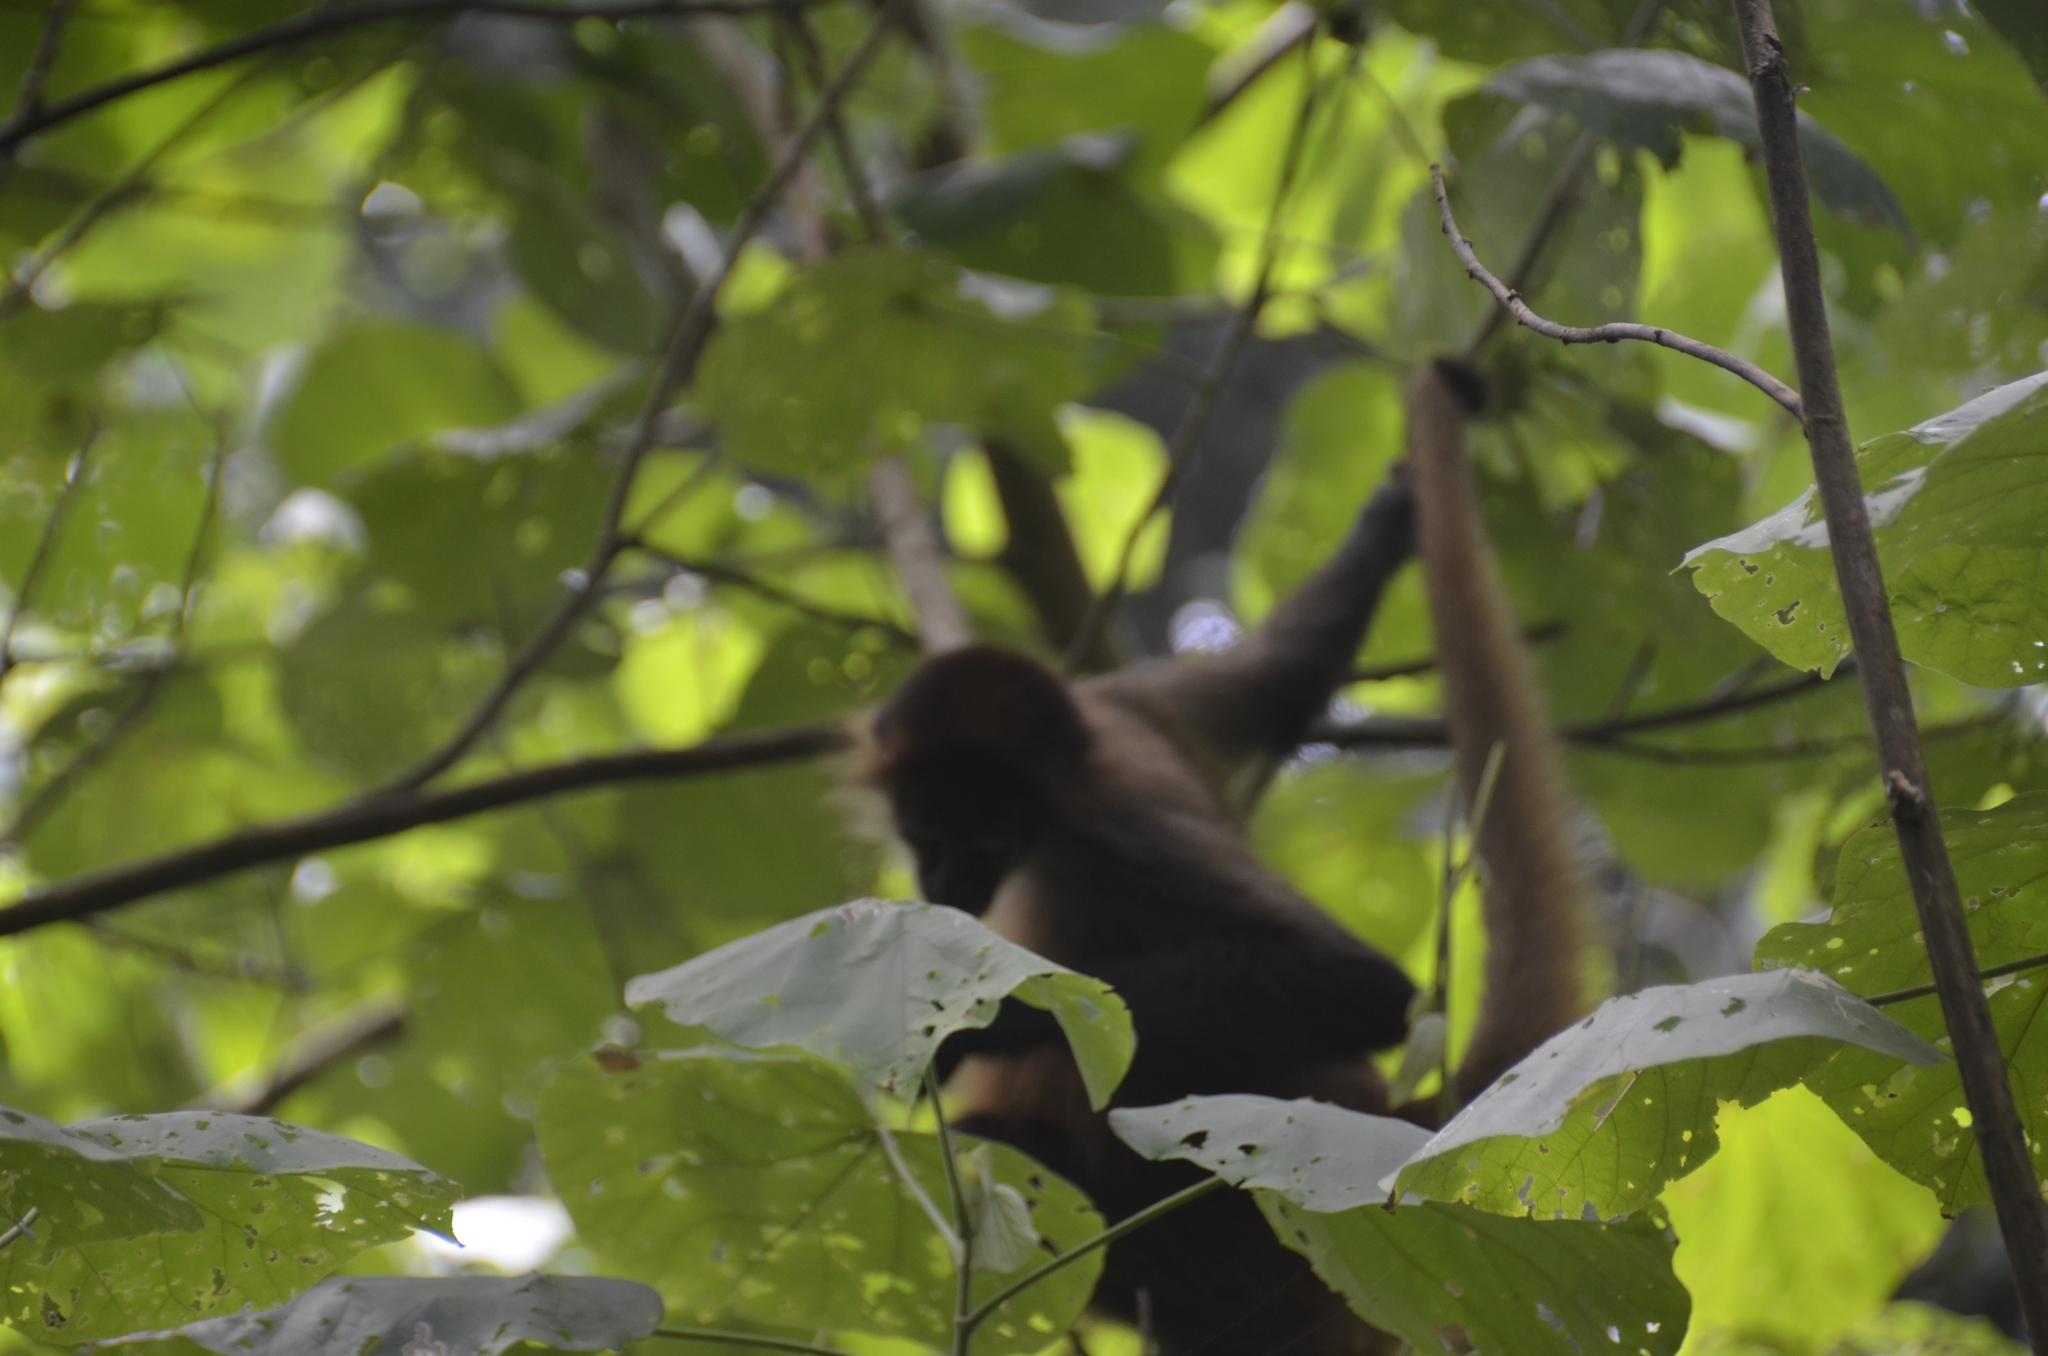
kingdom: Animalia
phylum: Chordata
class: Mammalia
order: Primates
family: Atelidae
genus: Ateles
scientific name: Ateles geoffroyi
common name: Black-handed spider monkey
